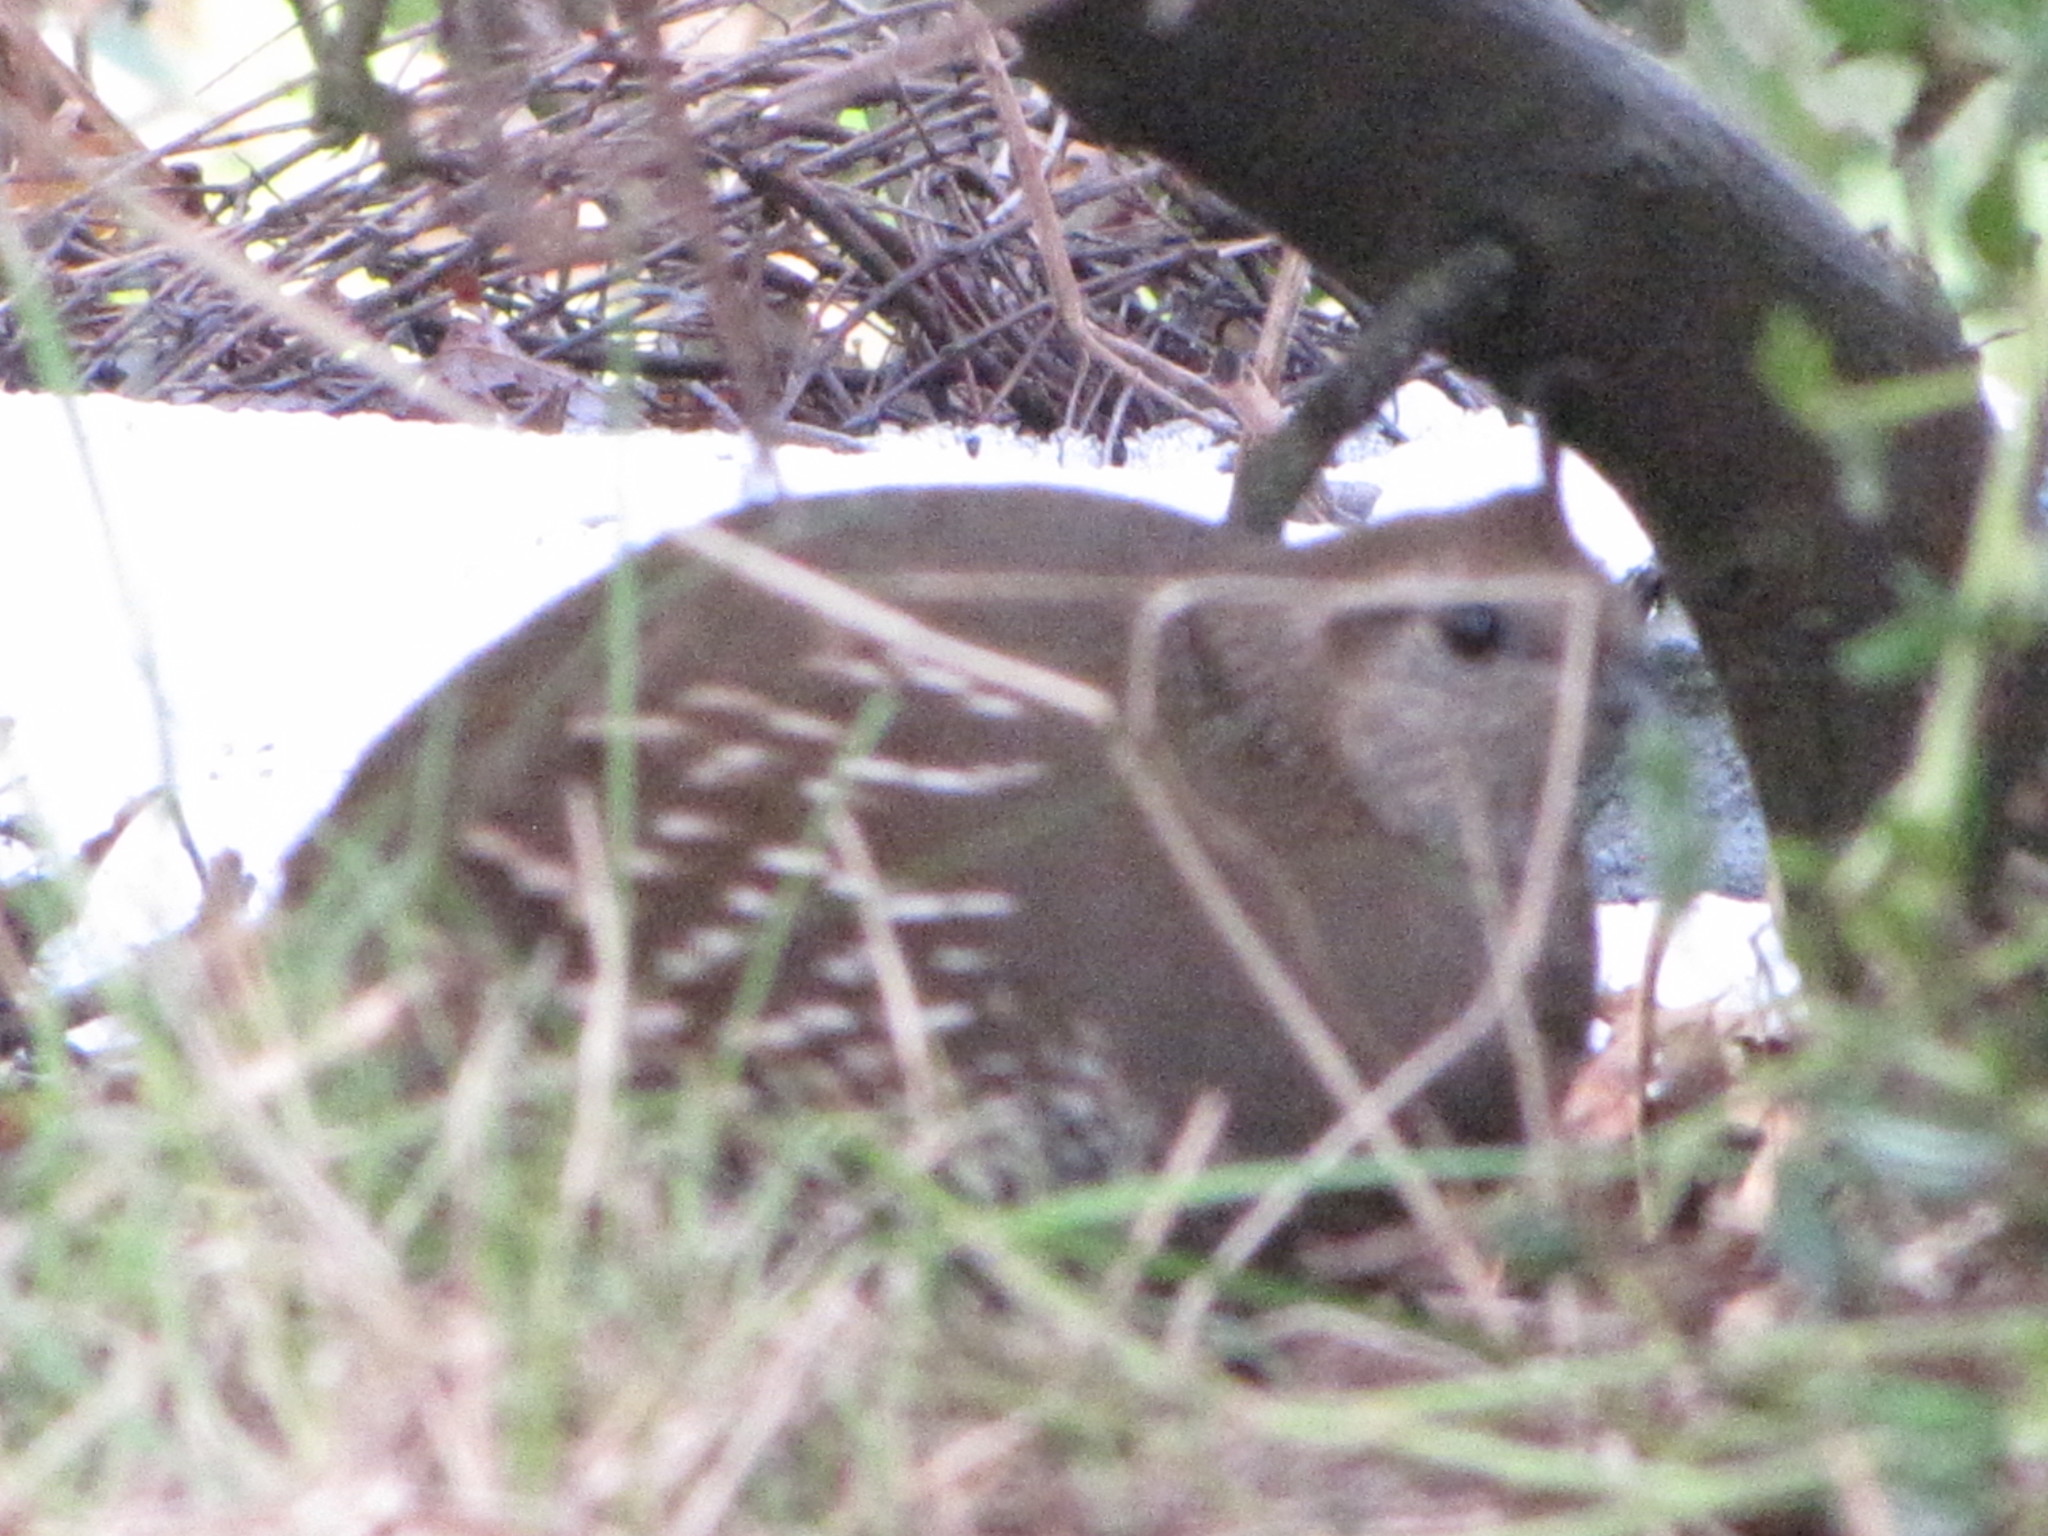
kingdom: Animalia
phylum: Chordata
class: Aves
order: Galliformes
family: Odontophoridae
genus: Callipepla
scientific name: Callipepla californica
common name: California quail
